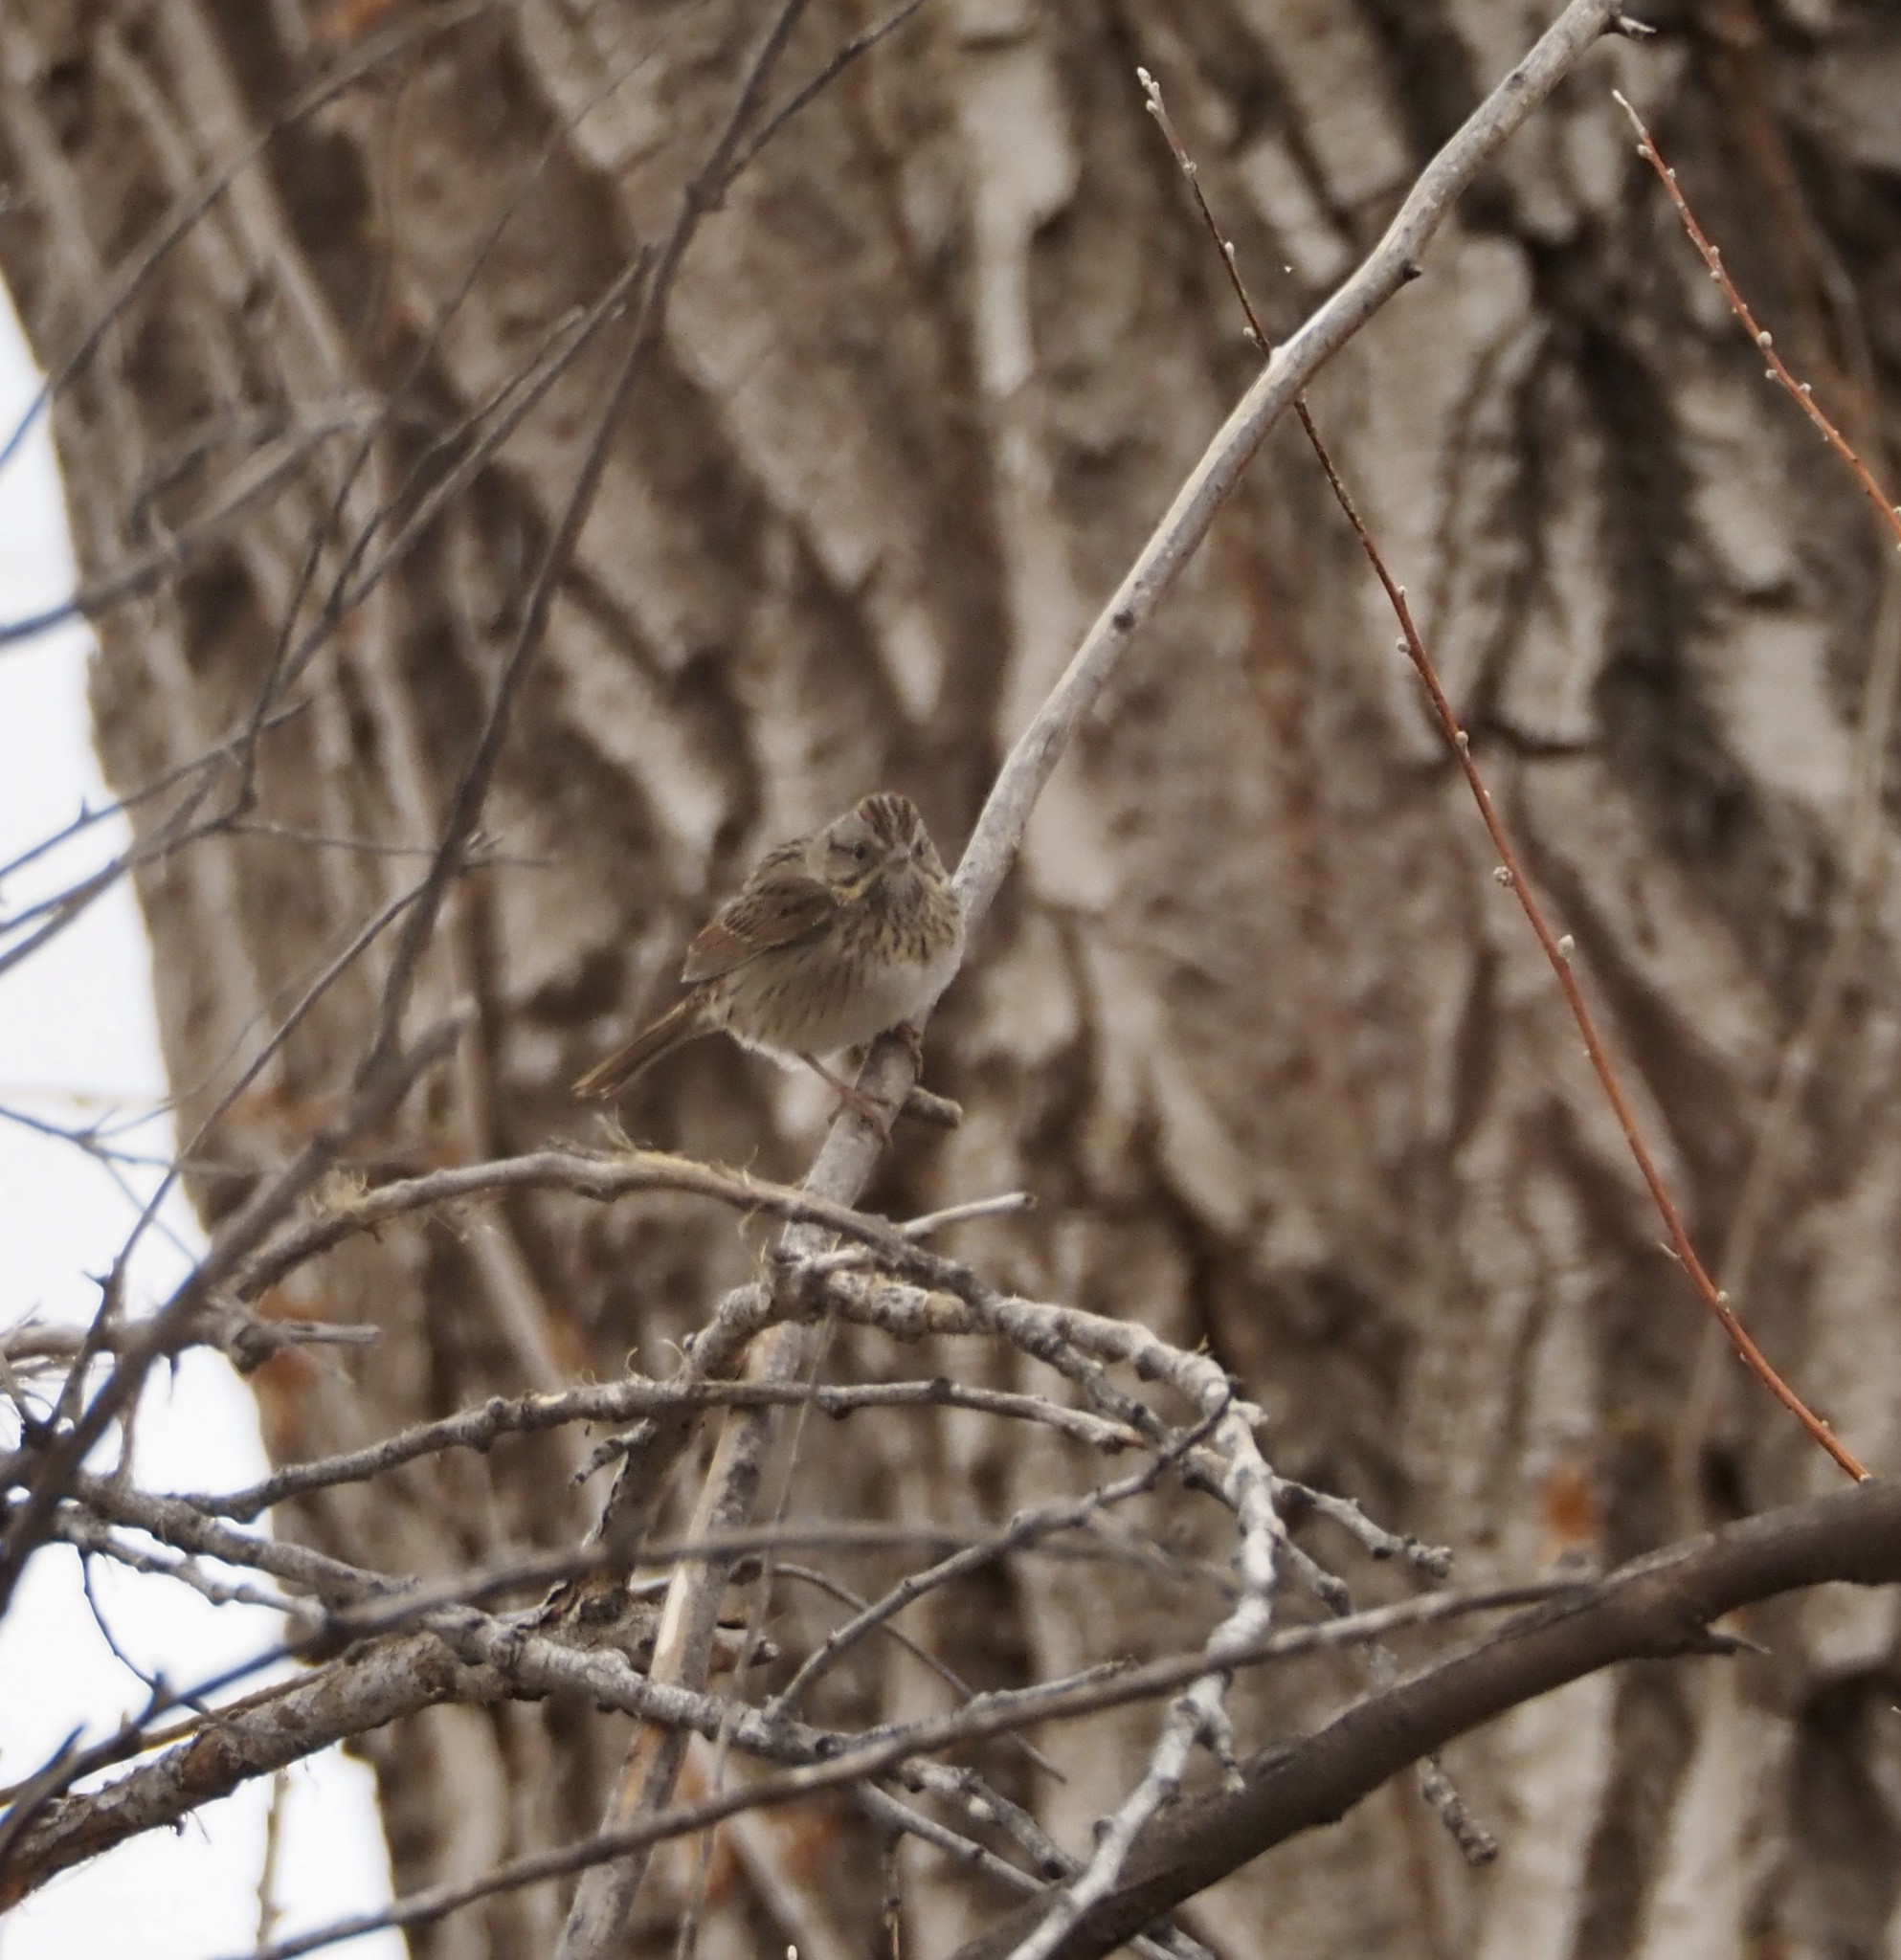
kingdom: Animalia
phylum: Chordata
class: Aves
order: Passeriformes
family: Passerellidae
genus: Melospiza
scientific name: Melospiza lincolnii
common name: Lincoln's sparrow
